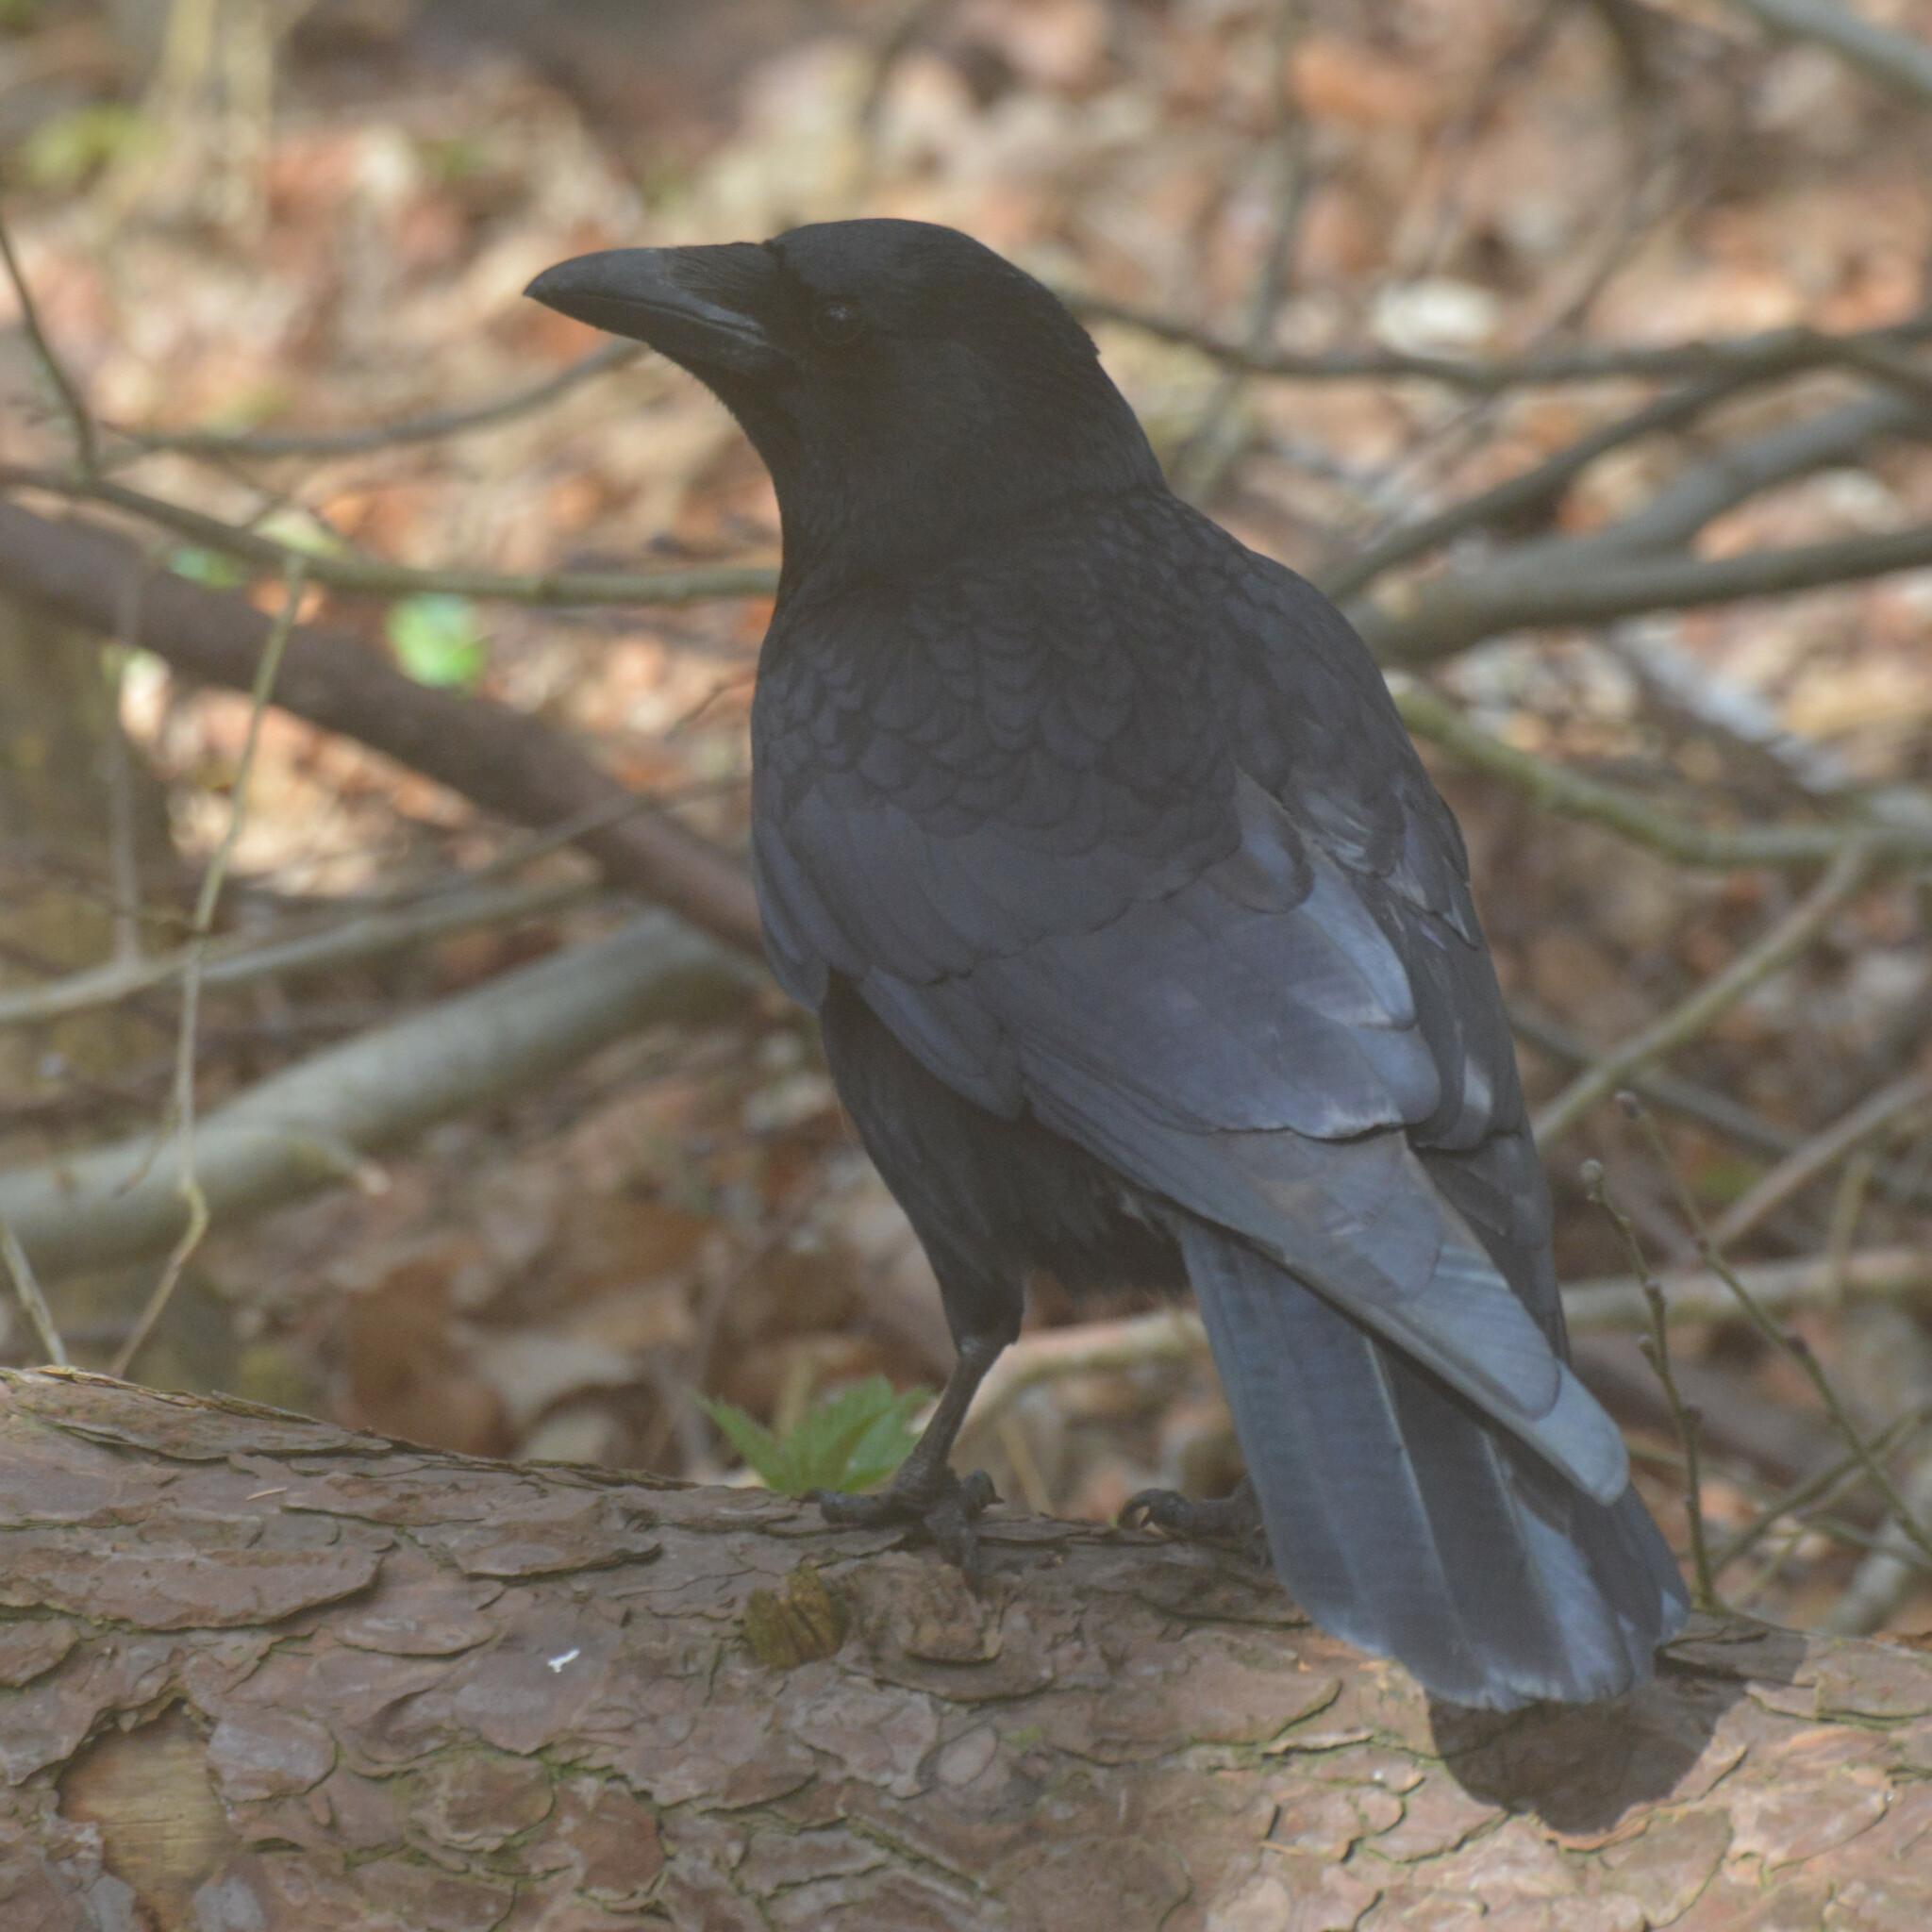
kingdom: Animalia
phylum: Chordata
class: Aves
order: Passeriformes
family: Corvidae
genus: Corvus
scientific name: Corvus corone
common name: Carrion crow
